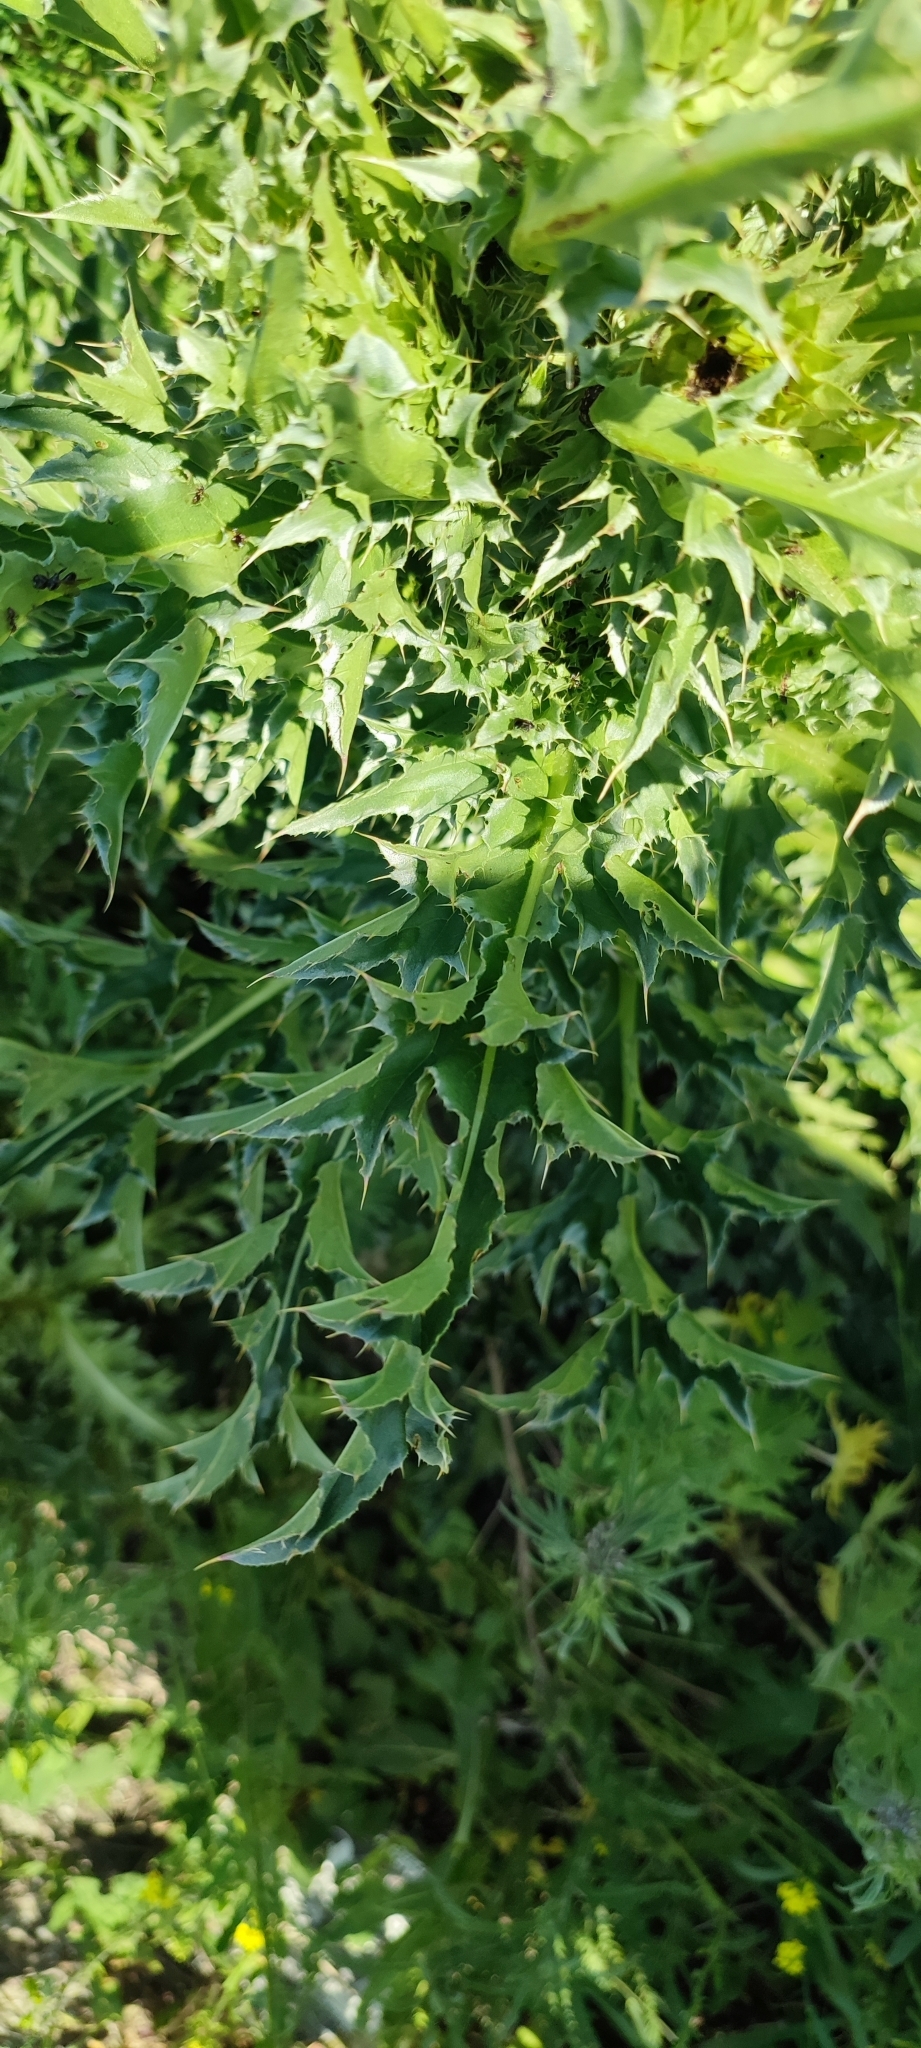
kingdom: Plantae
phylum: Tracheophyta
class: Magnoliopsida
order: Asterales
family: Asteraceae
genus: Carduus
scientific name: Carduus nutans
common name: Musk thistle
